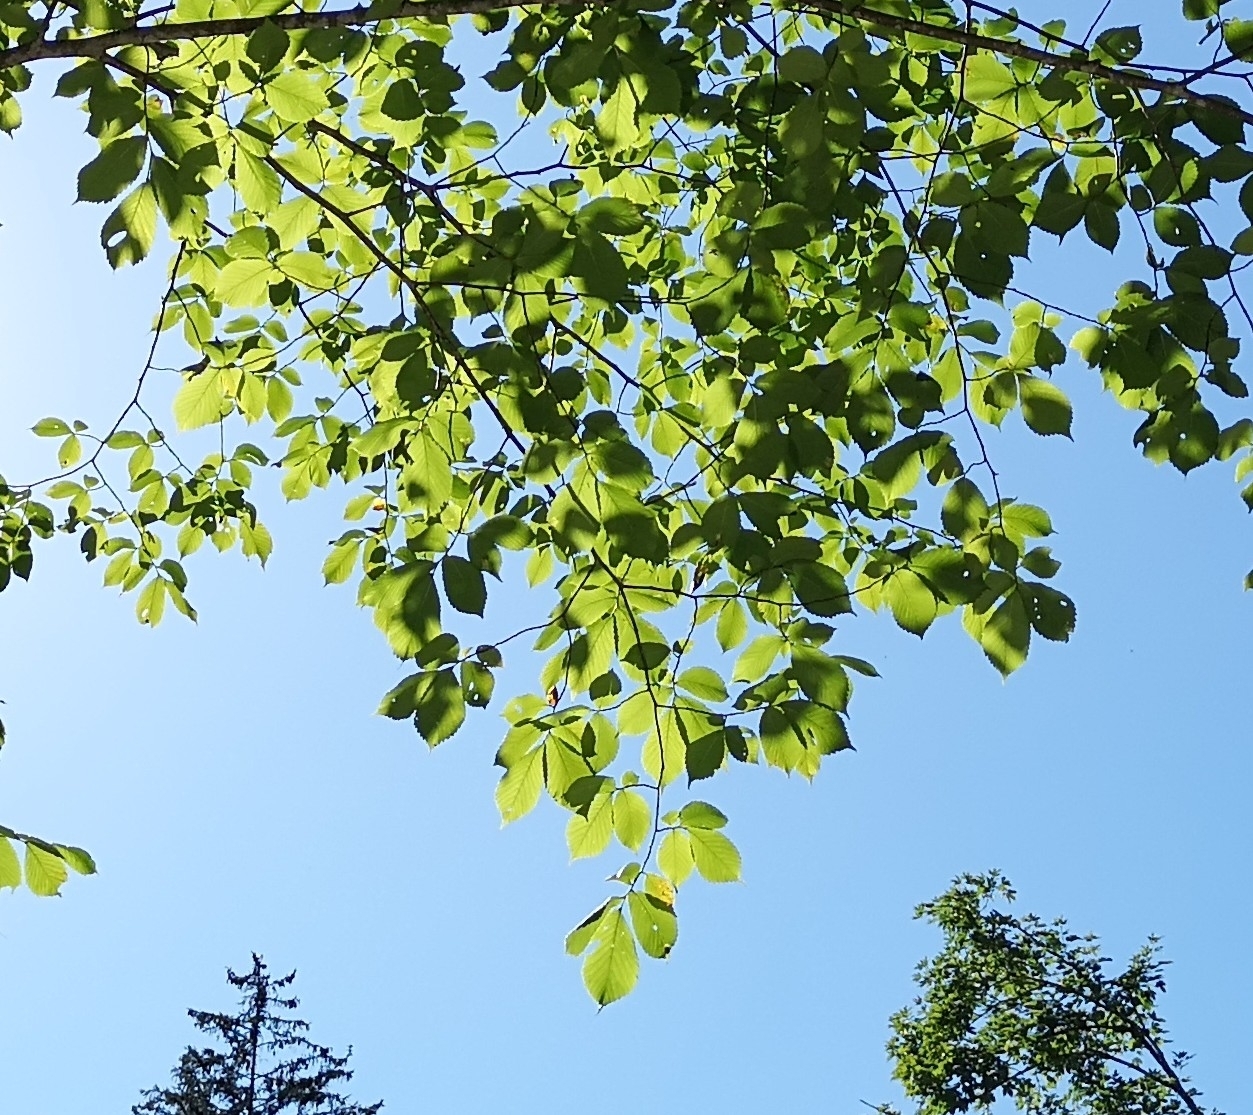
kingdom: Plantae
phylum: Tracheophyta
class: Magnoliopsida
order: Rosales
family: Ulmaceae
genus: Ulmus
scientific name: Ulmus glabra
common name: Wych elm
